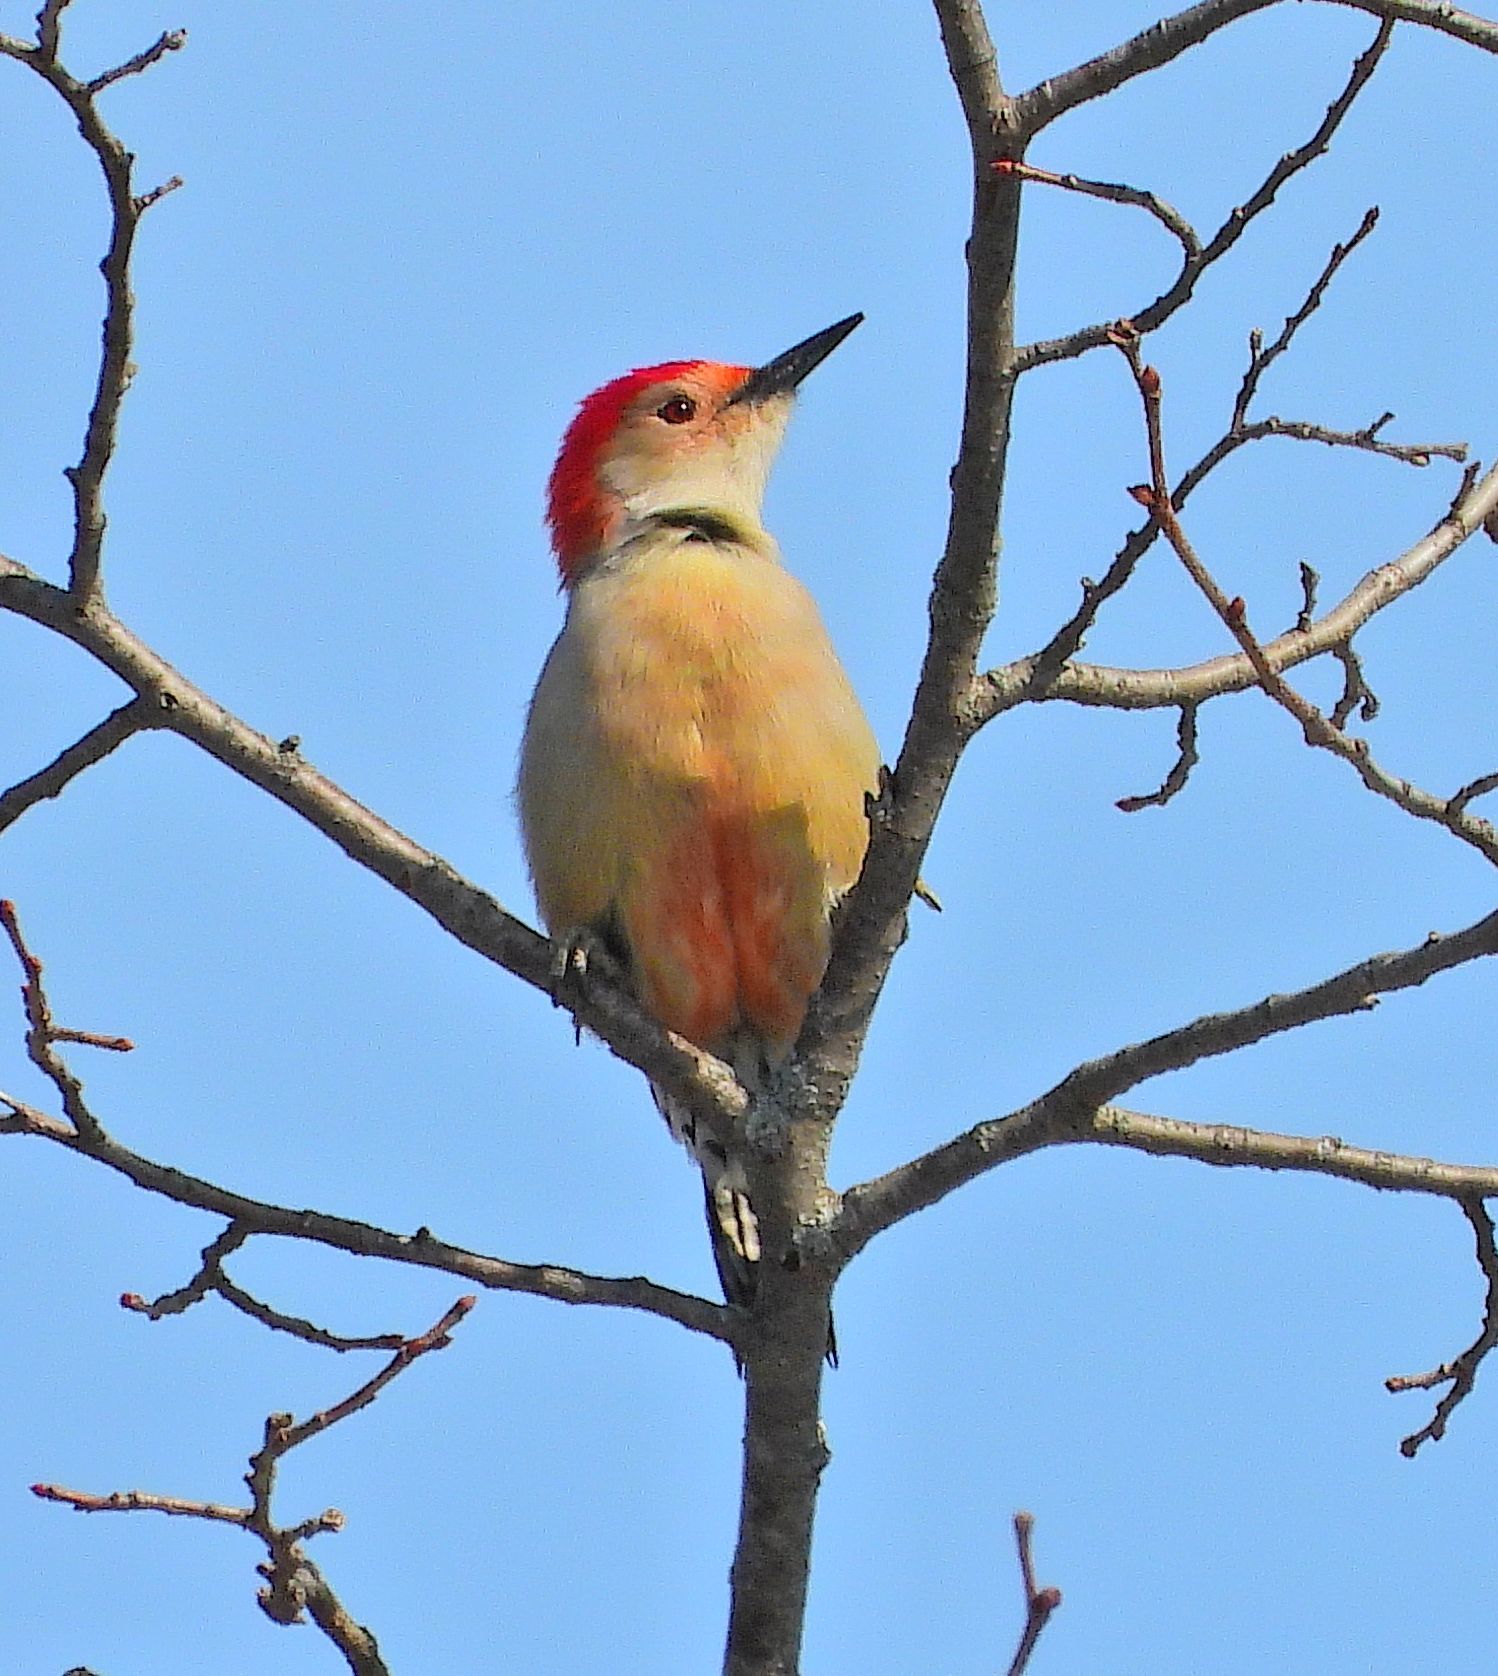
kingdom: Animalia
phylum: Chordata
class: Aves
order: Piciformes
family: Picidae
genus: Melanerpes
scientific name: Melanerpes carolinus
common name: Red-bellied woodpecker
